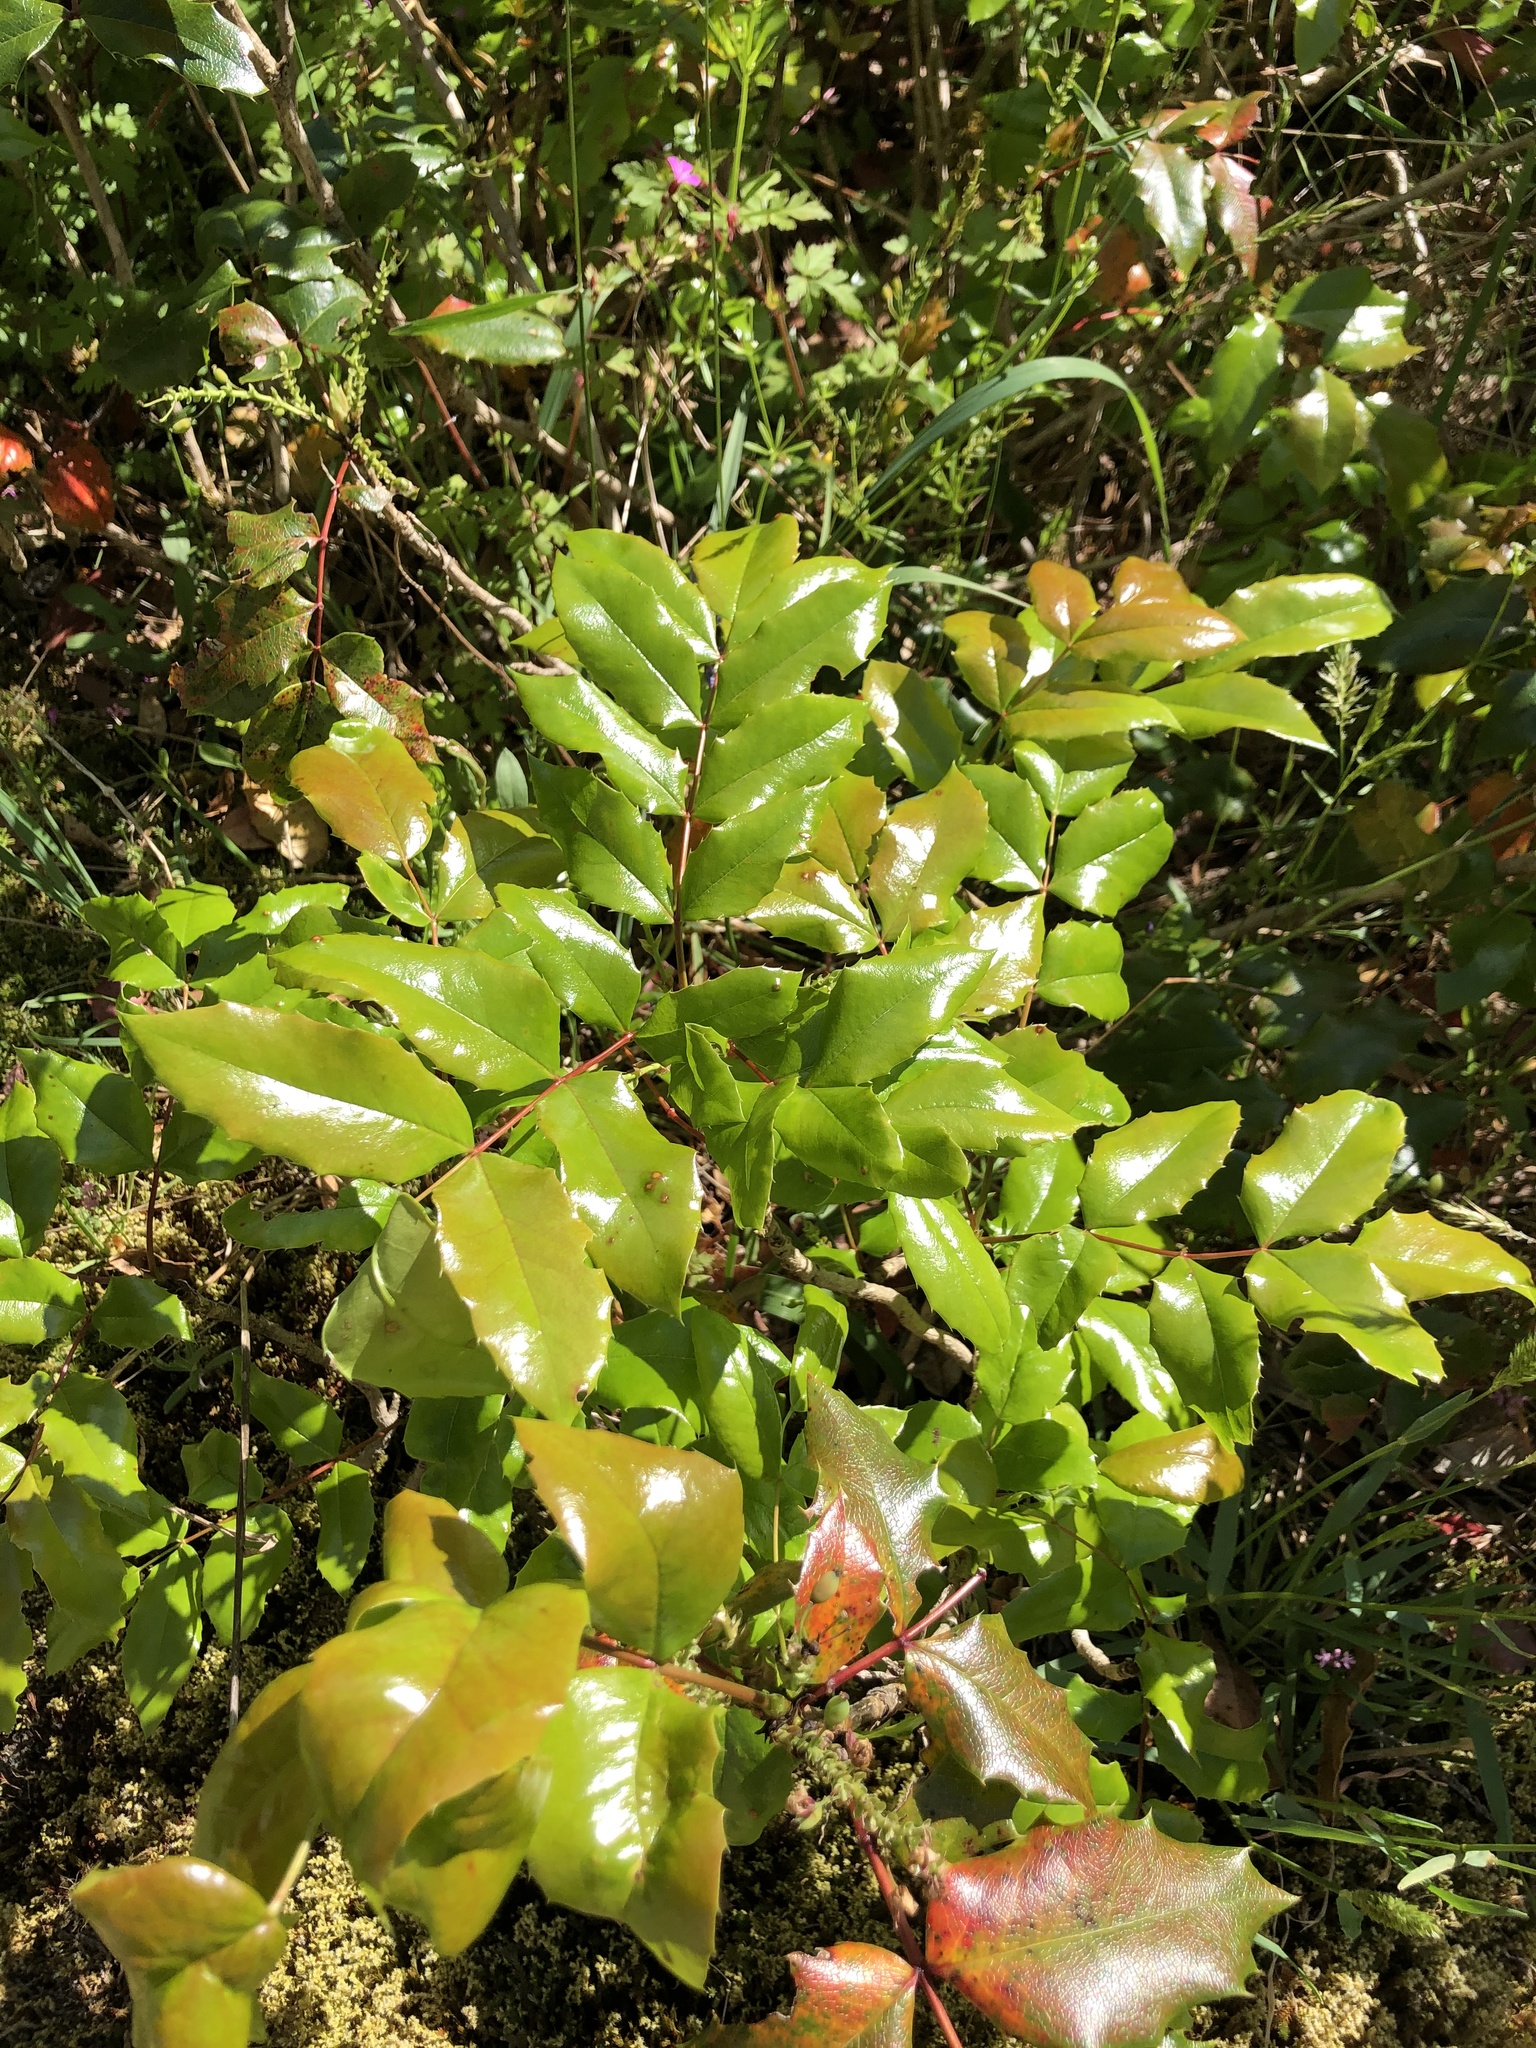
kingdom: Plantae
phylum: Tracheophyta
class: Magnoliopsida
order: Ranunculales
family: Berberidaceae
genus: Mahonia
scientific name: Mahonia aquifolium
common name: Oregon-grape
